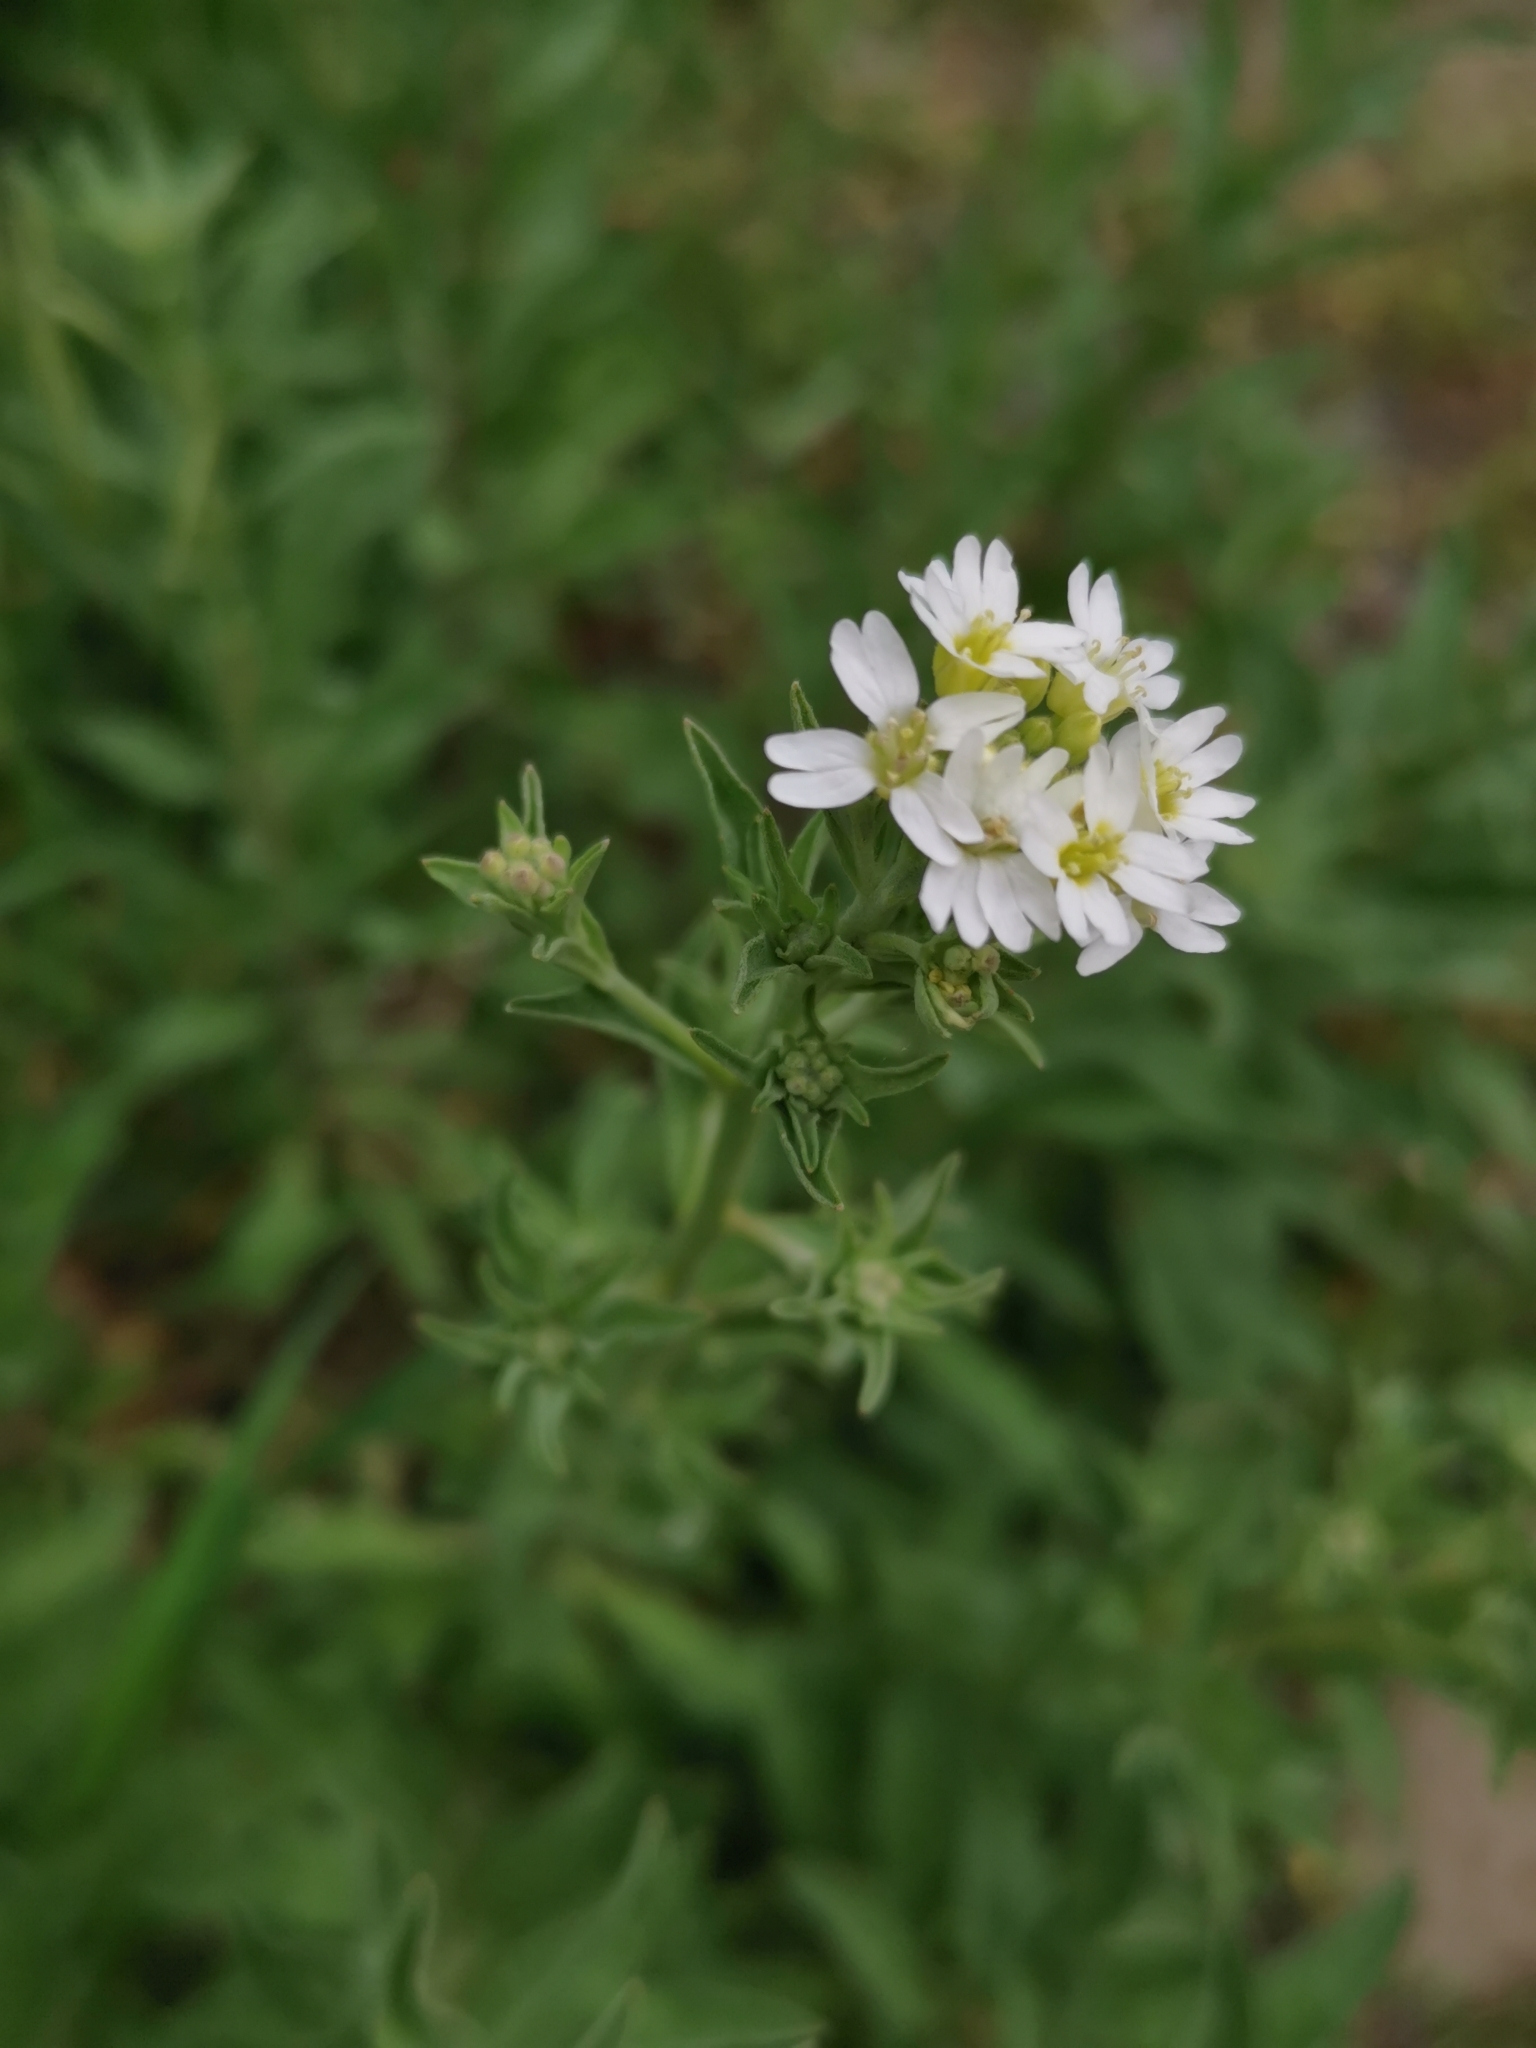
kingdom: Plantae
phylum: Tracheophyta
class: Magnoliopsida
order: Brassicales
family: Brassicaceae
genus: Berteroa
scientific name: Berteroa incana
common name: Hoary alison
